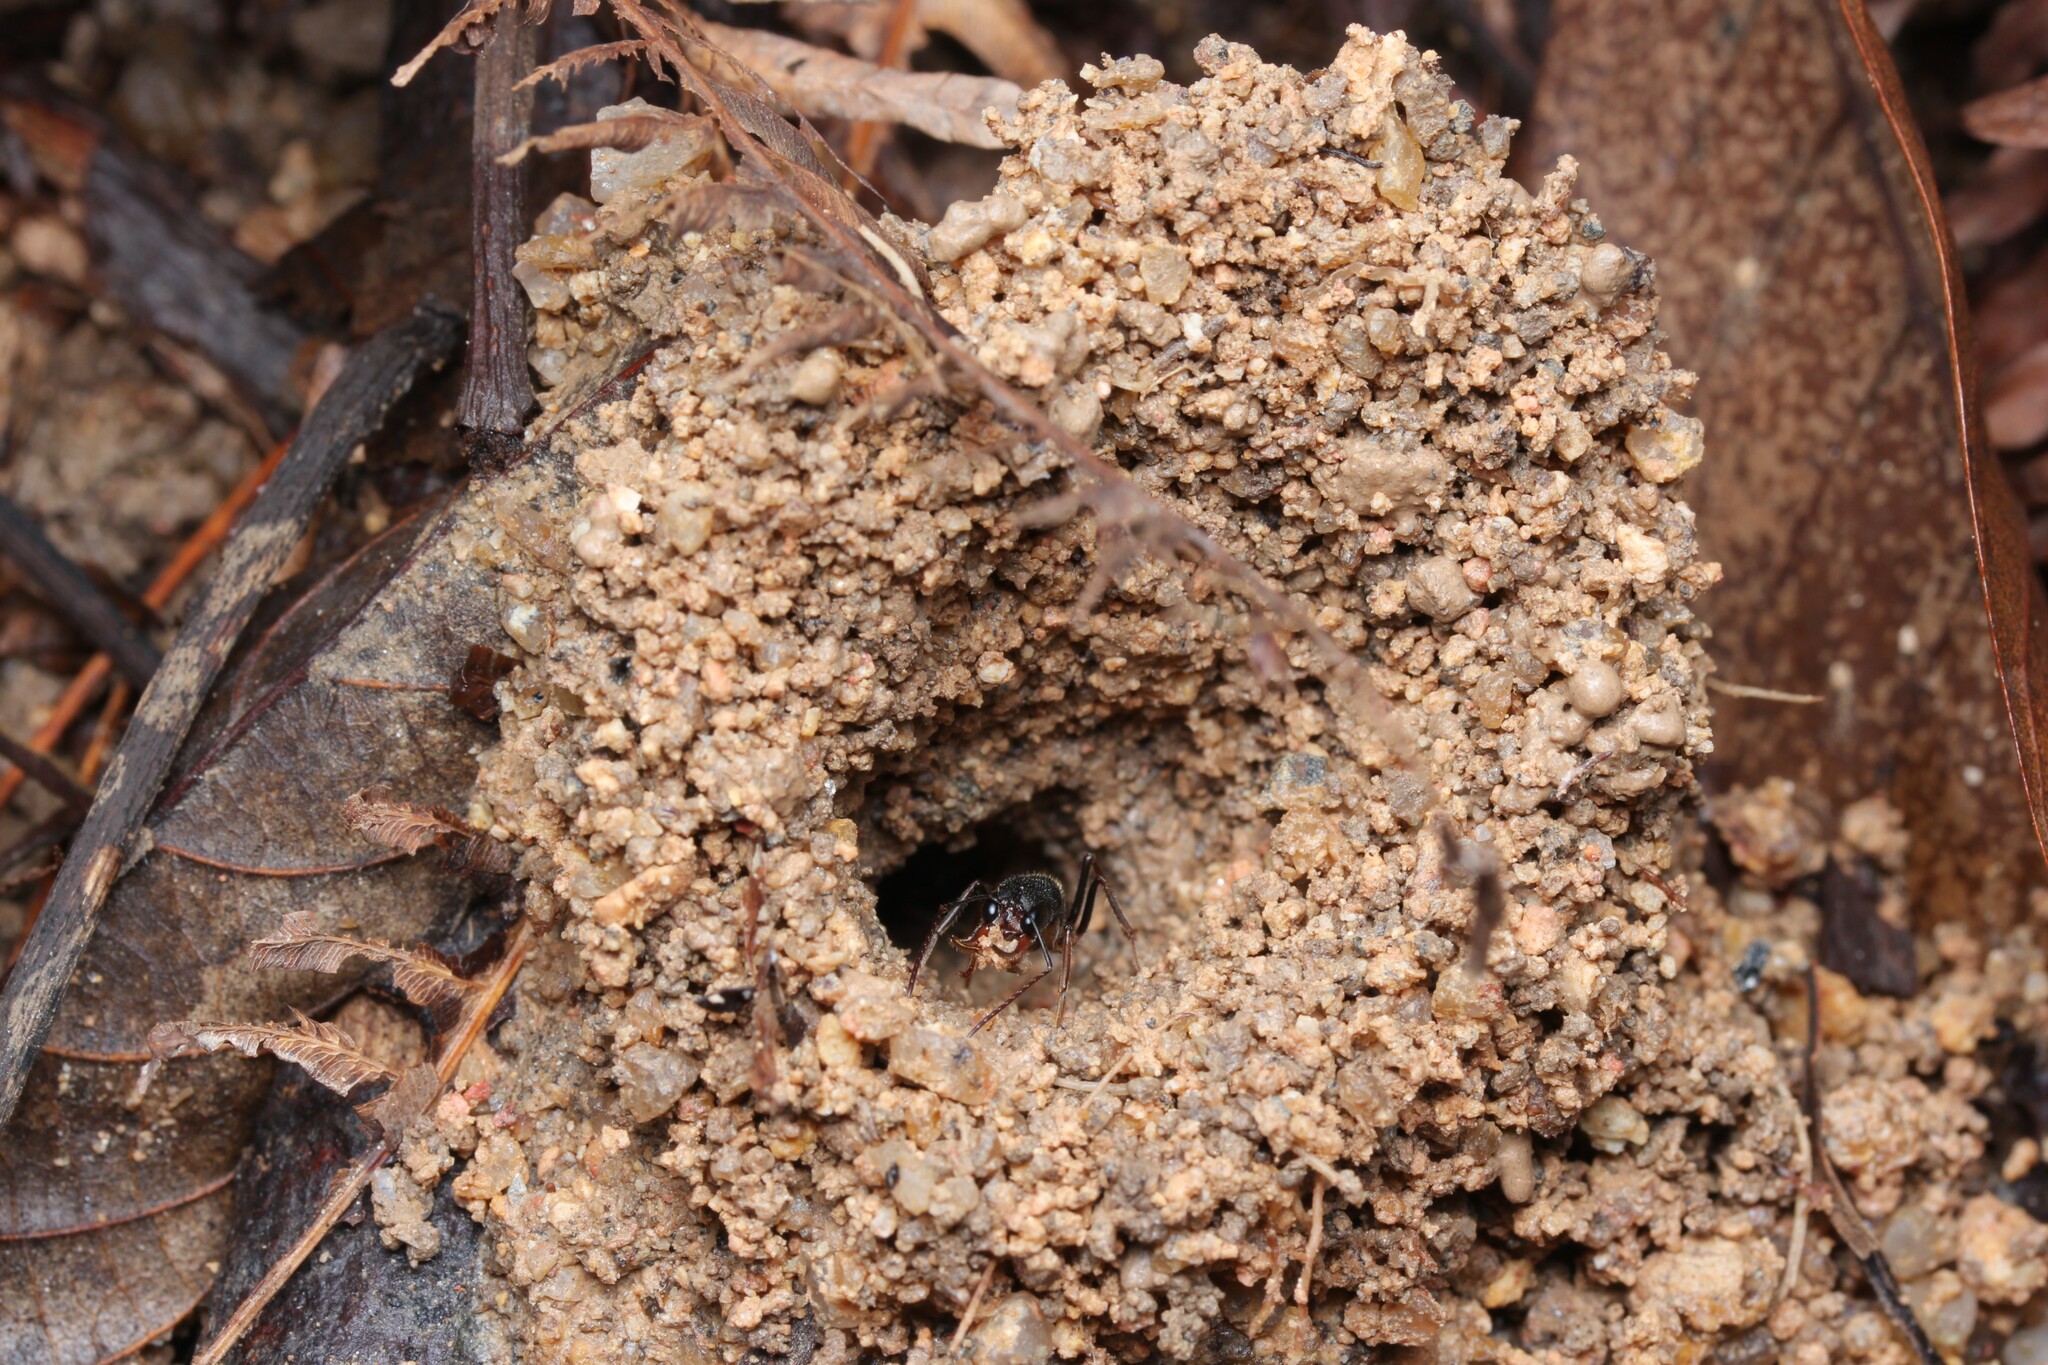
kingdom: Animalia
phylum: Arthropoda
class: Insecta
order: Hymenoptera
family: Formicidae
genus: Harpegnathos
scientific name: Harpegnathos venator
